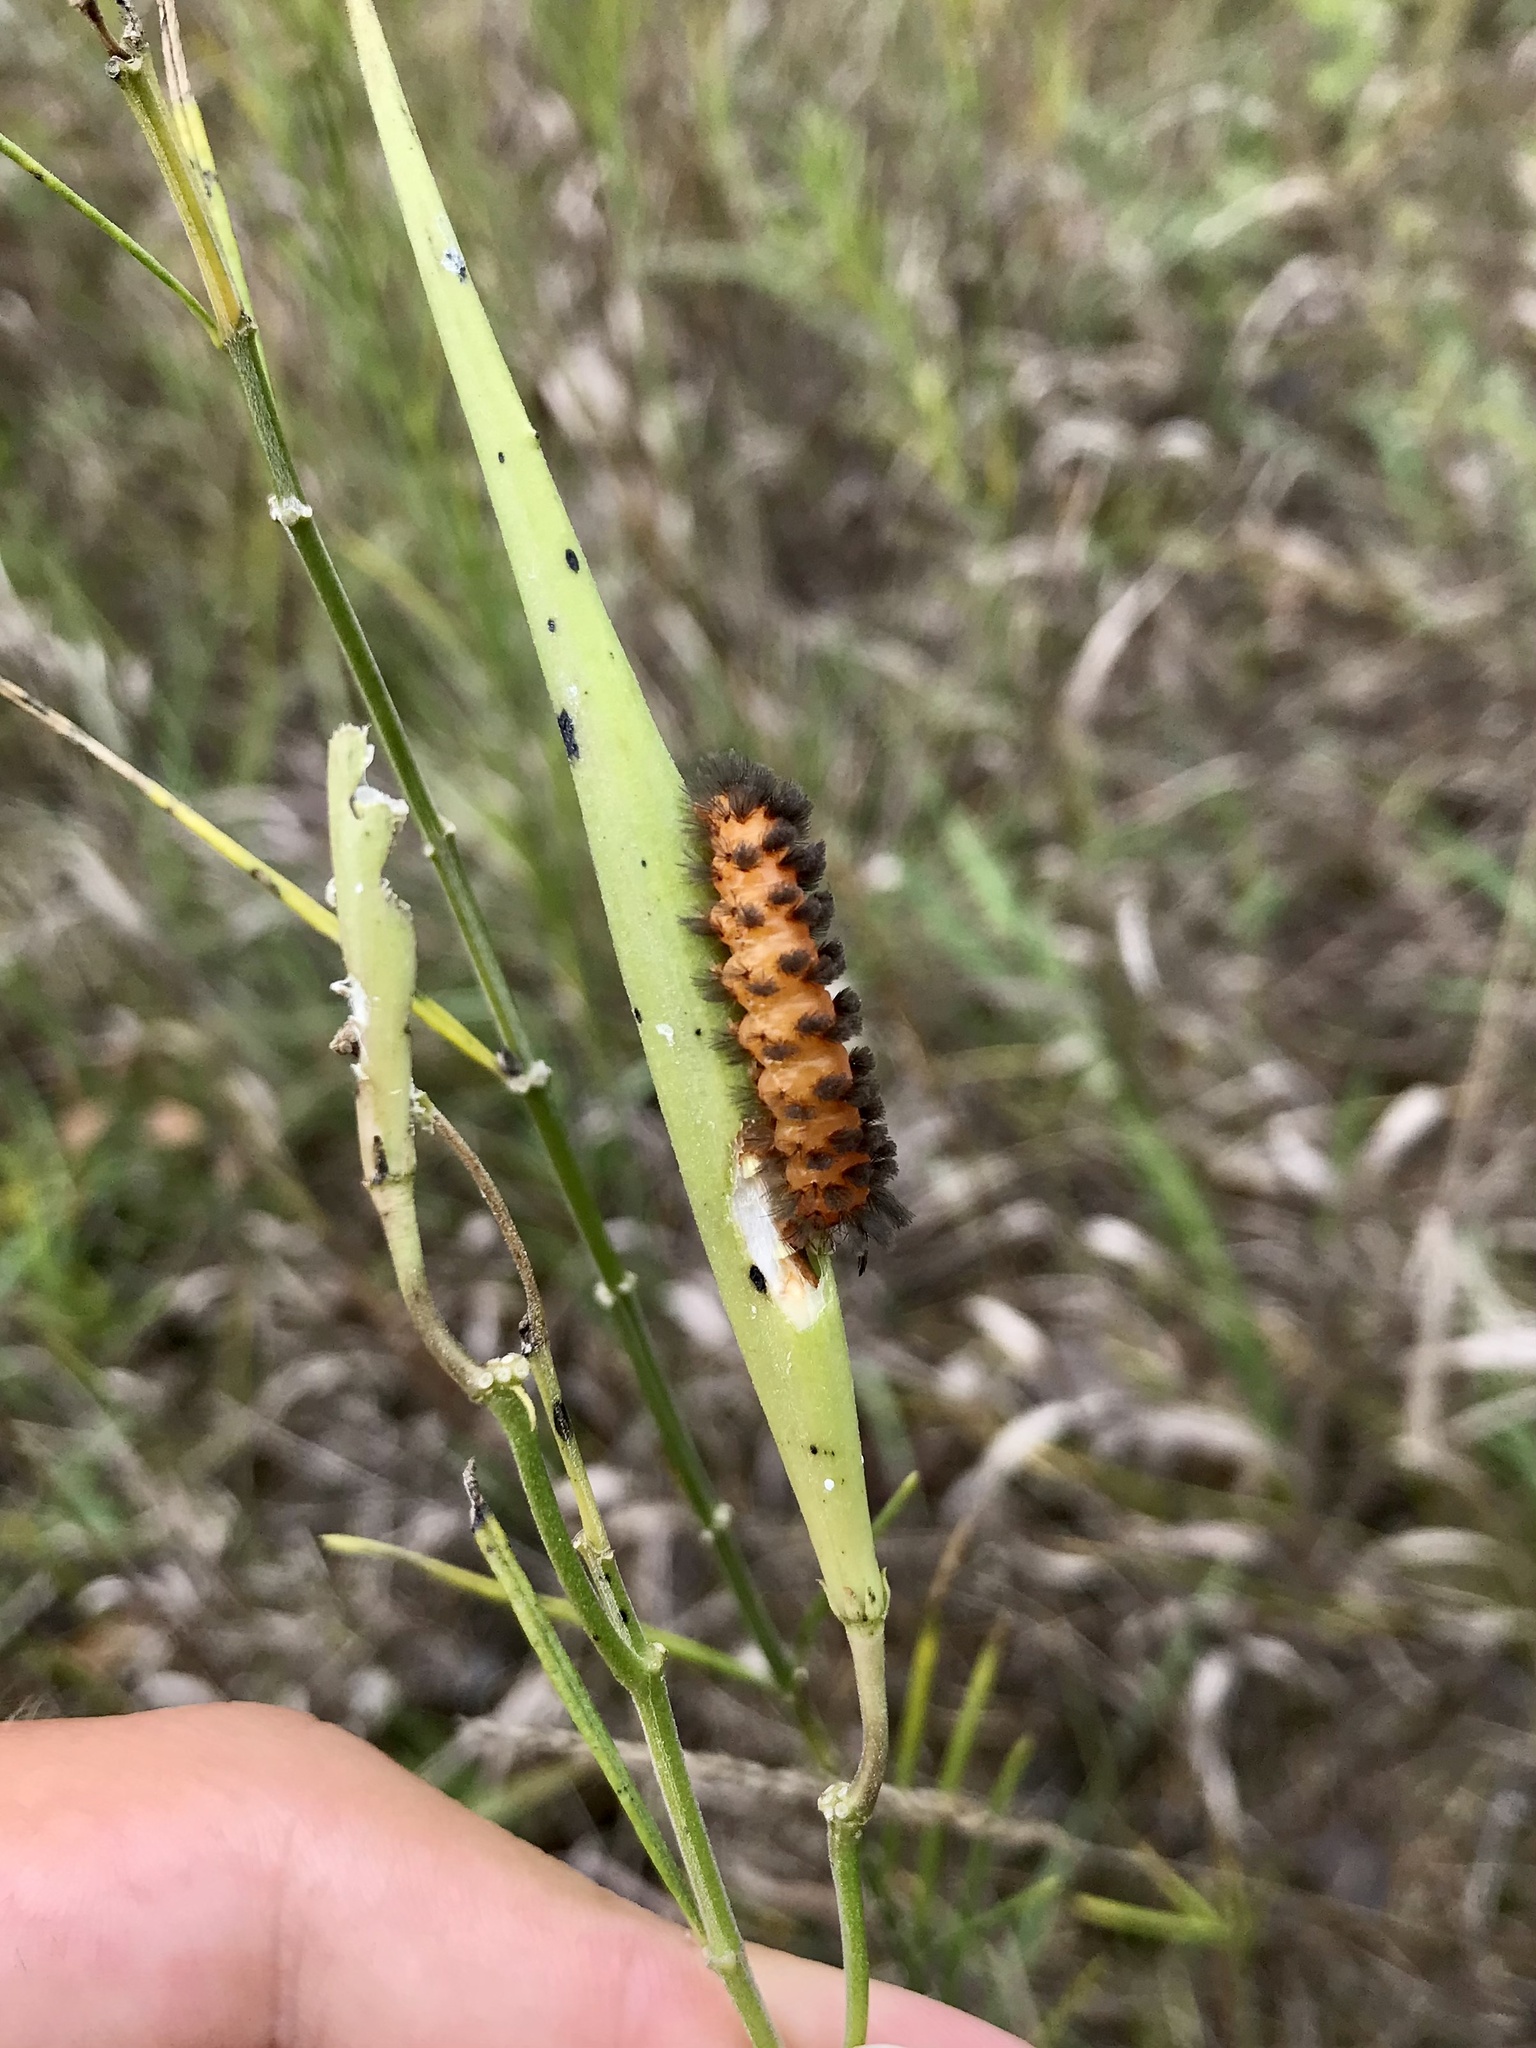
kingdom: Animalia
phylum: Arthropoda
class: Insecta
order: Lepidoptera
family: Erebidae
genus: Cycnia
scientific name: Cycnia collaris
